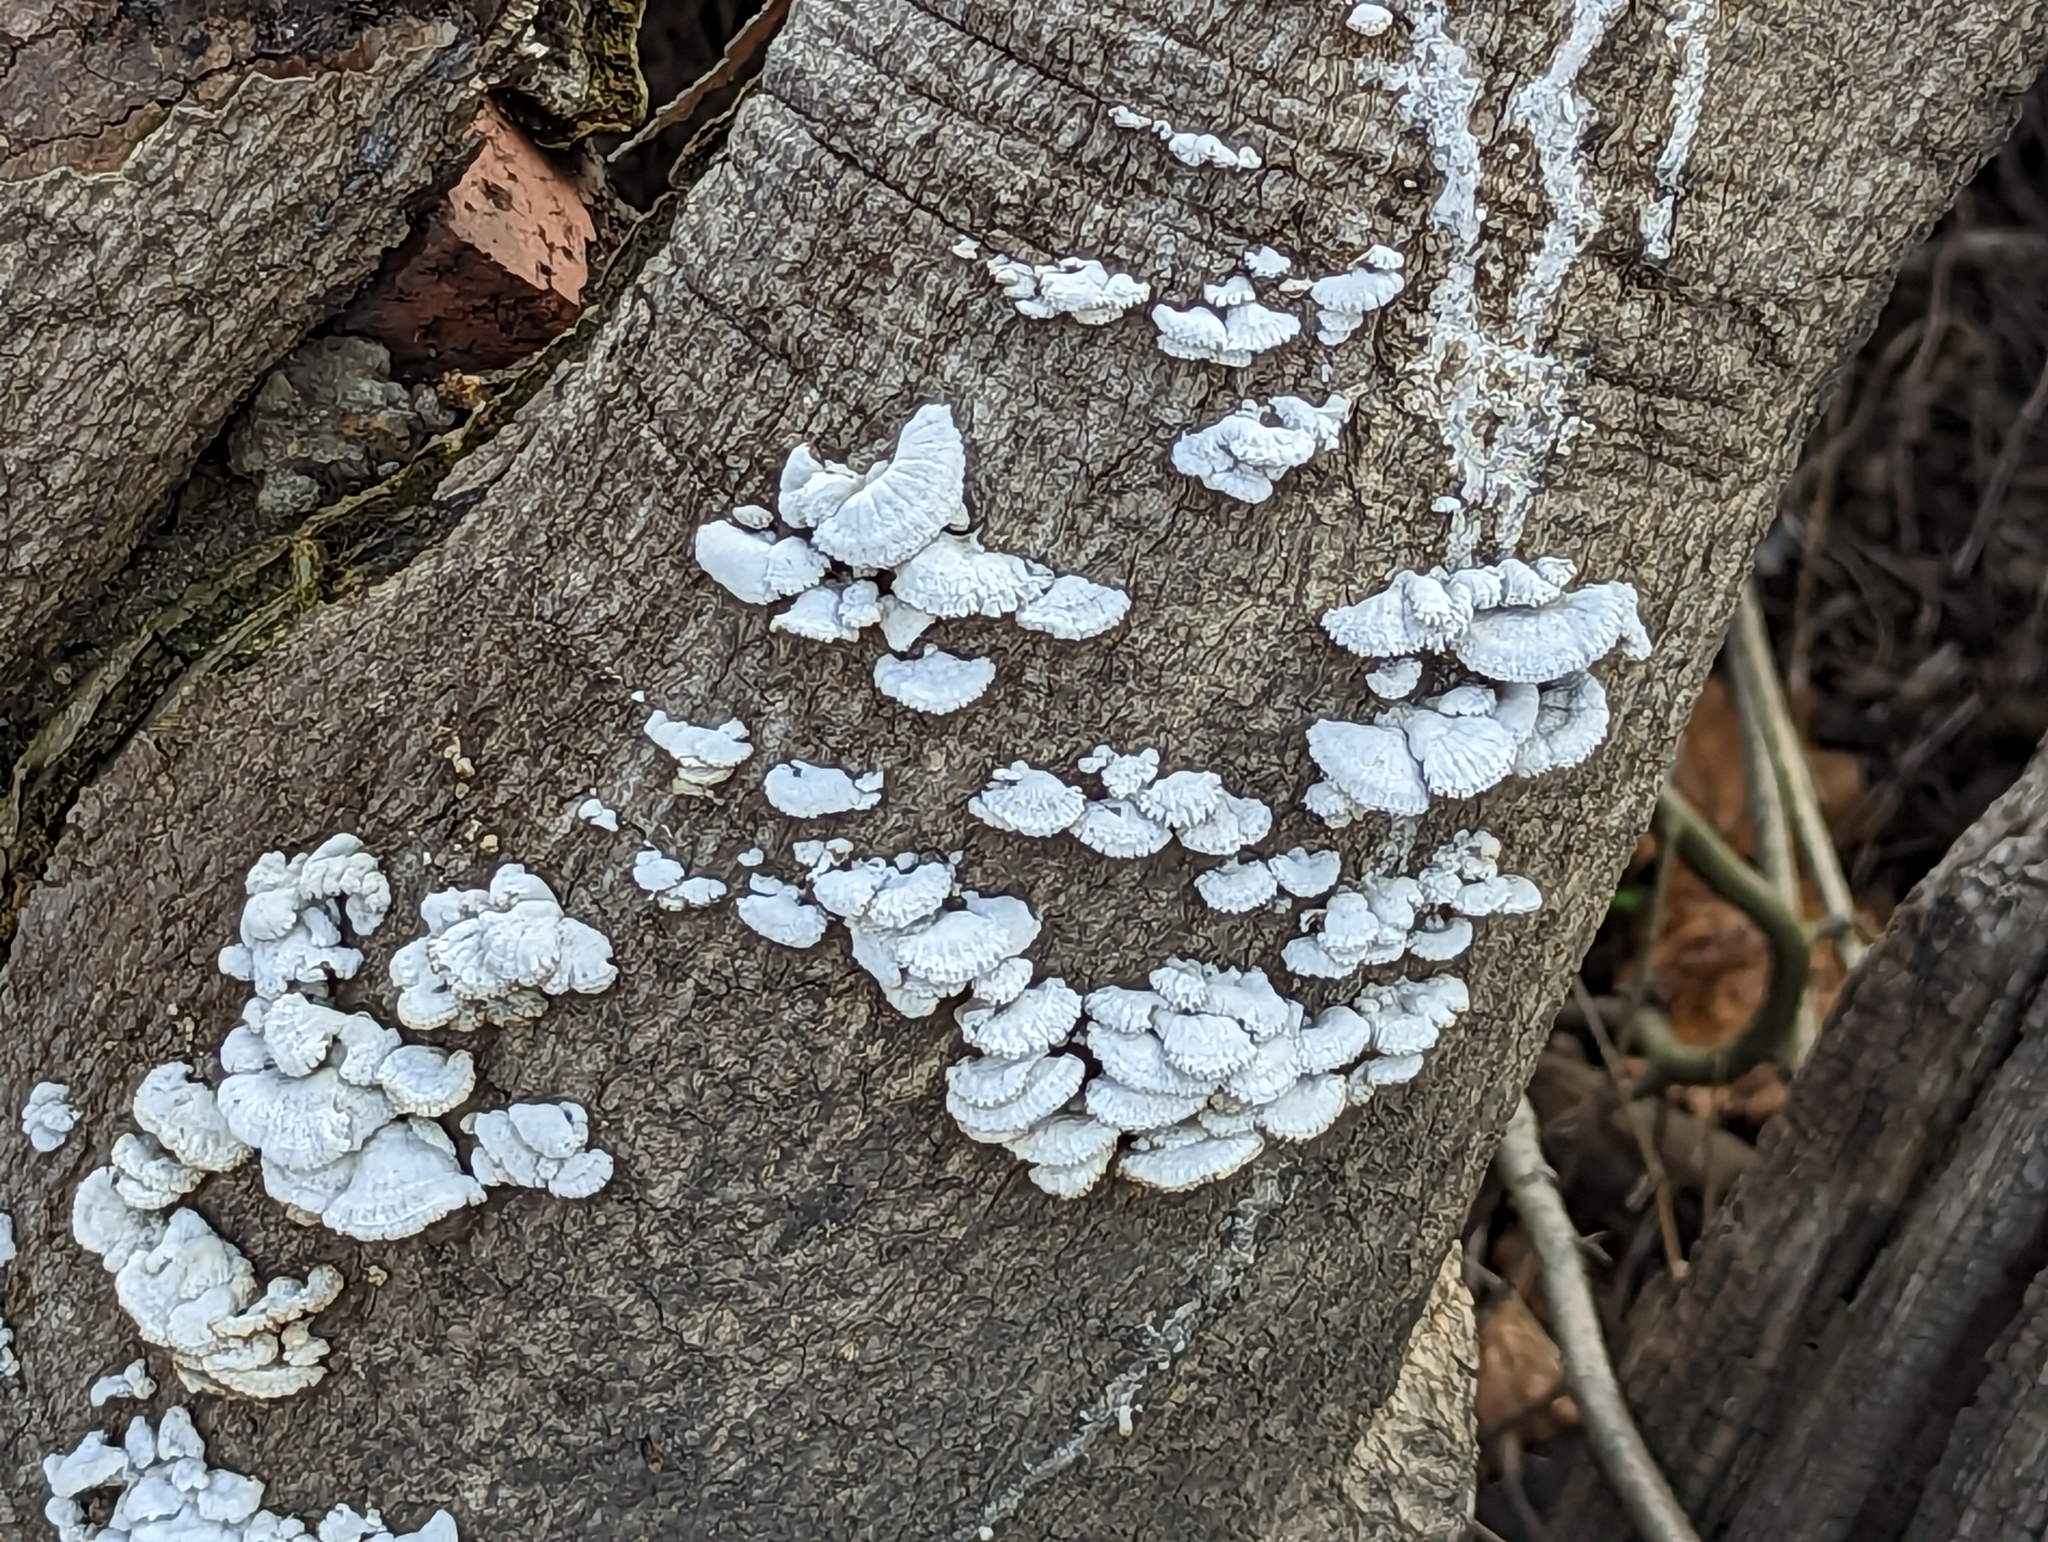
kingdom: Fungi
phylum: Basidiomycota
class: Agaricomycetes
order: Agaricales
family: Schizophyllaceae
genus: Schizophyllum
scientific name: Schizophyllum commune
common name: Common porecrust
